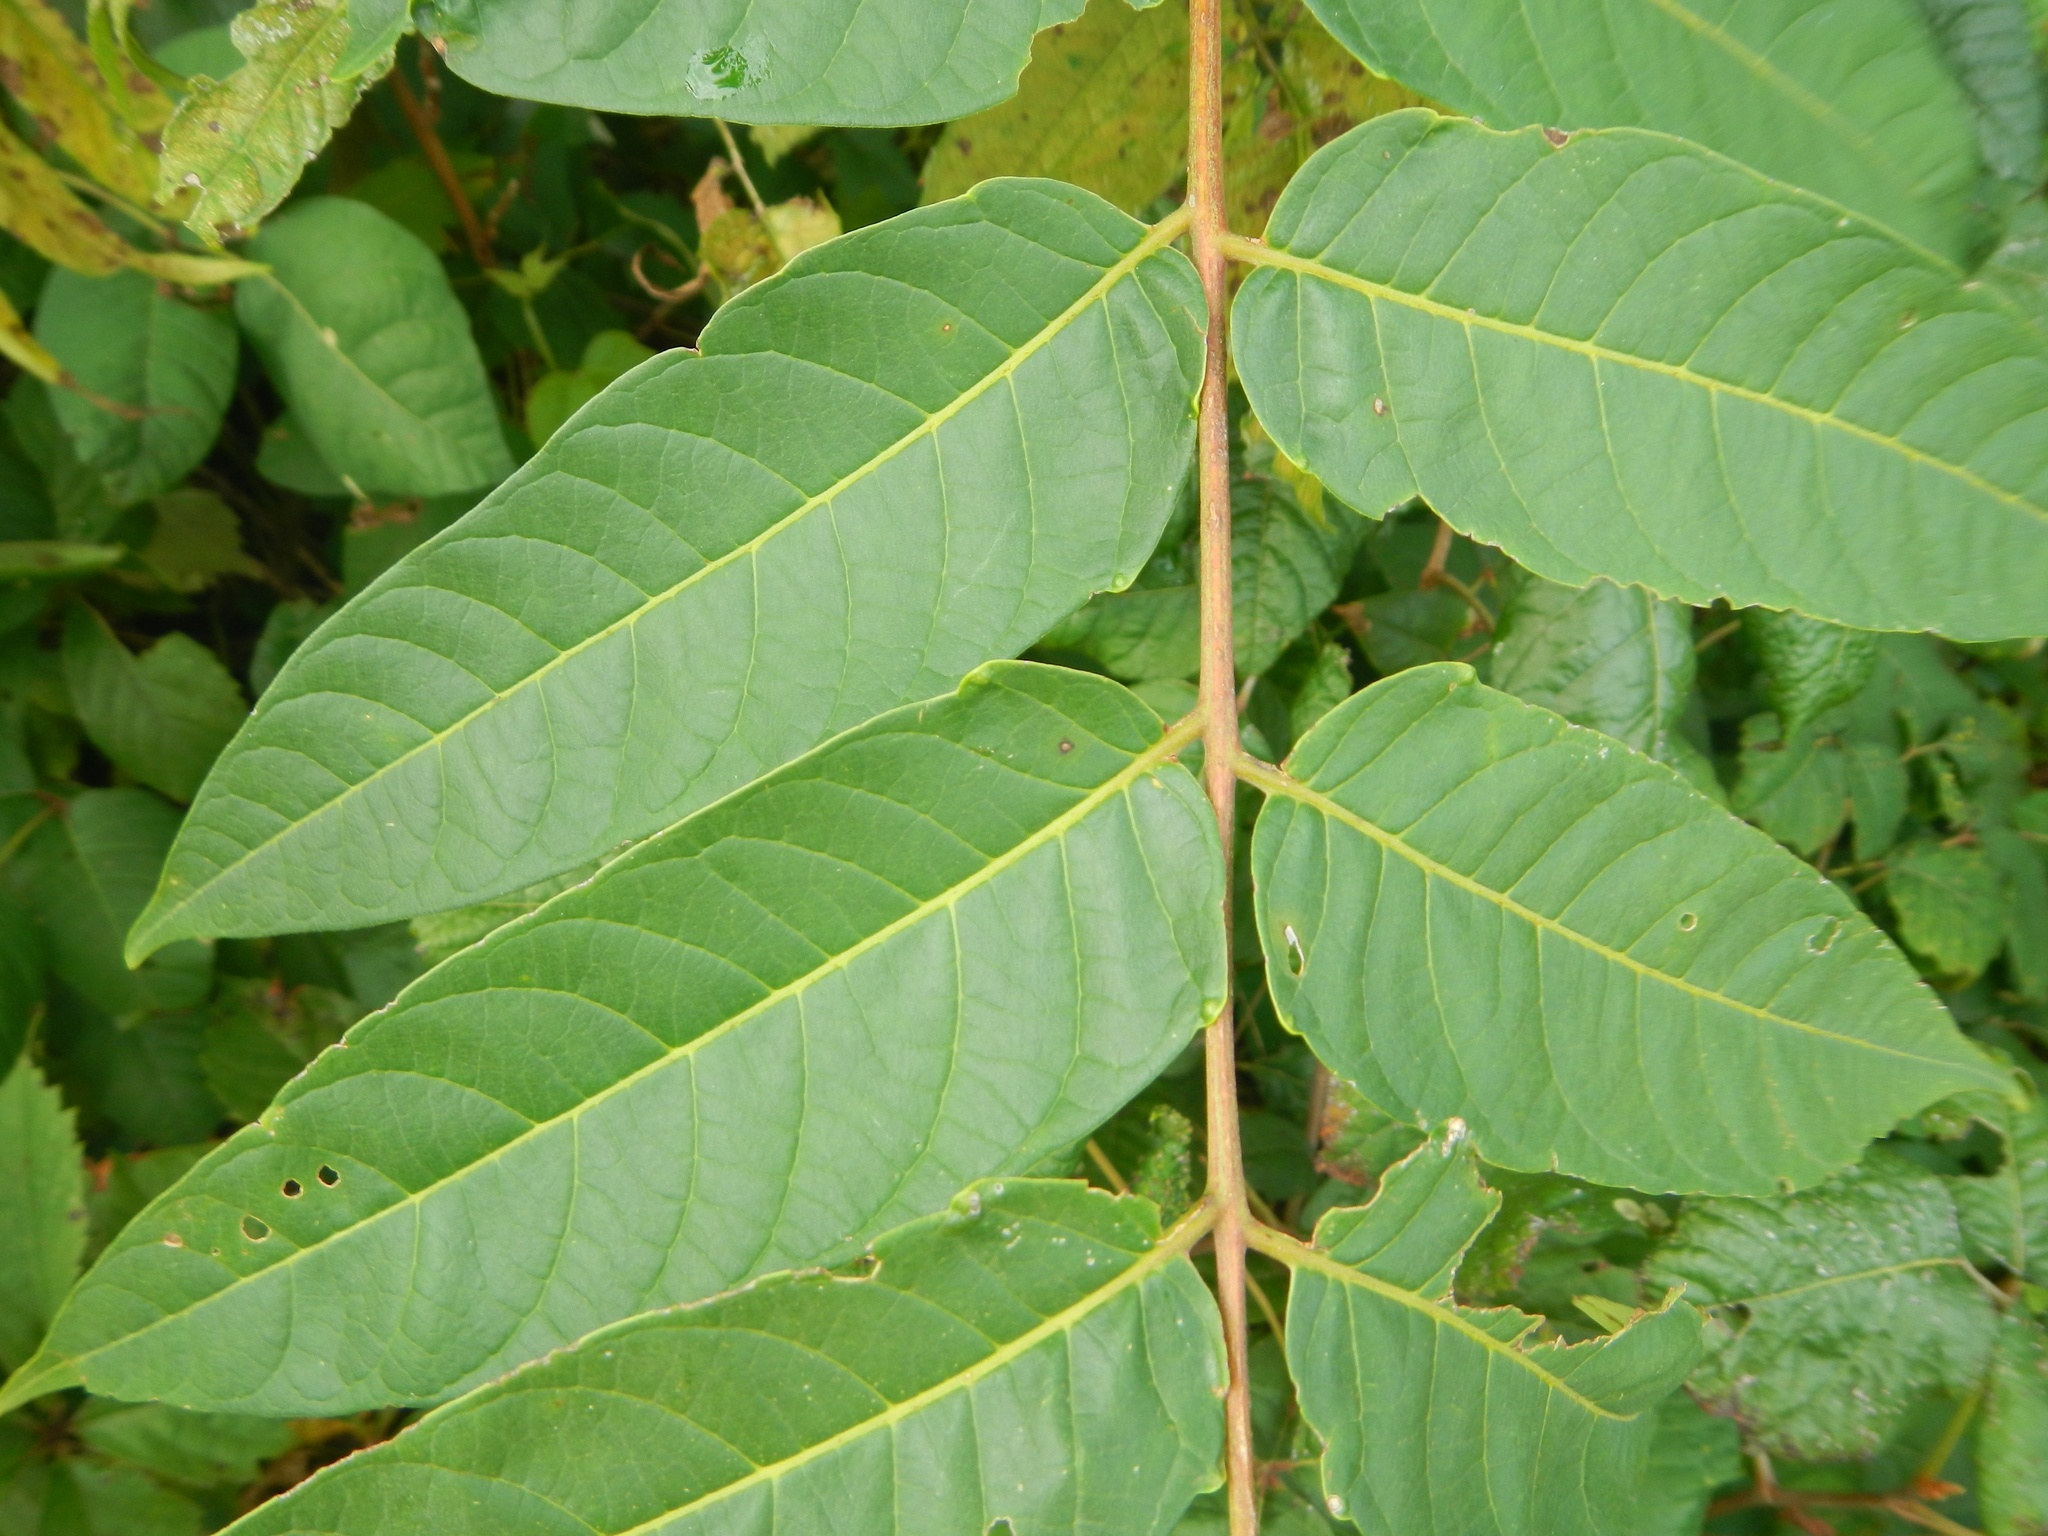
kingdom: Plantae
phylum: Tracheophyta
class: Magnoliopsida
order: Sapindales
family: Simaroubaceae
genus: Ailanthus
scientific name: Ailanthus altissima
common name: Tree-of-heaven
